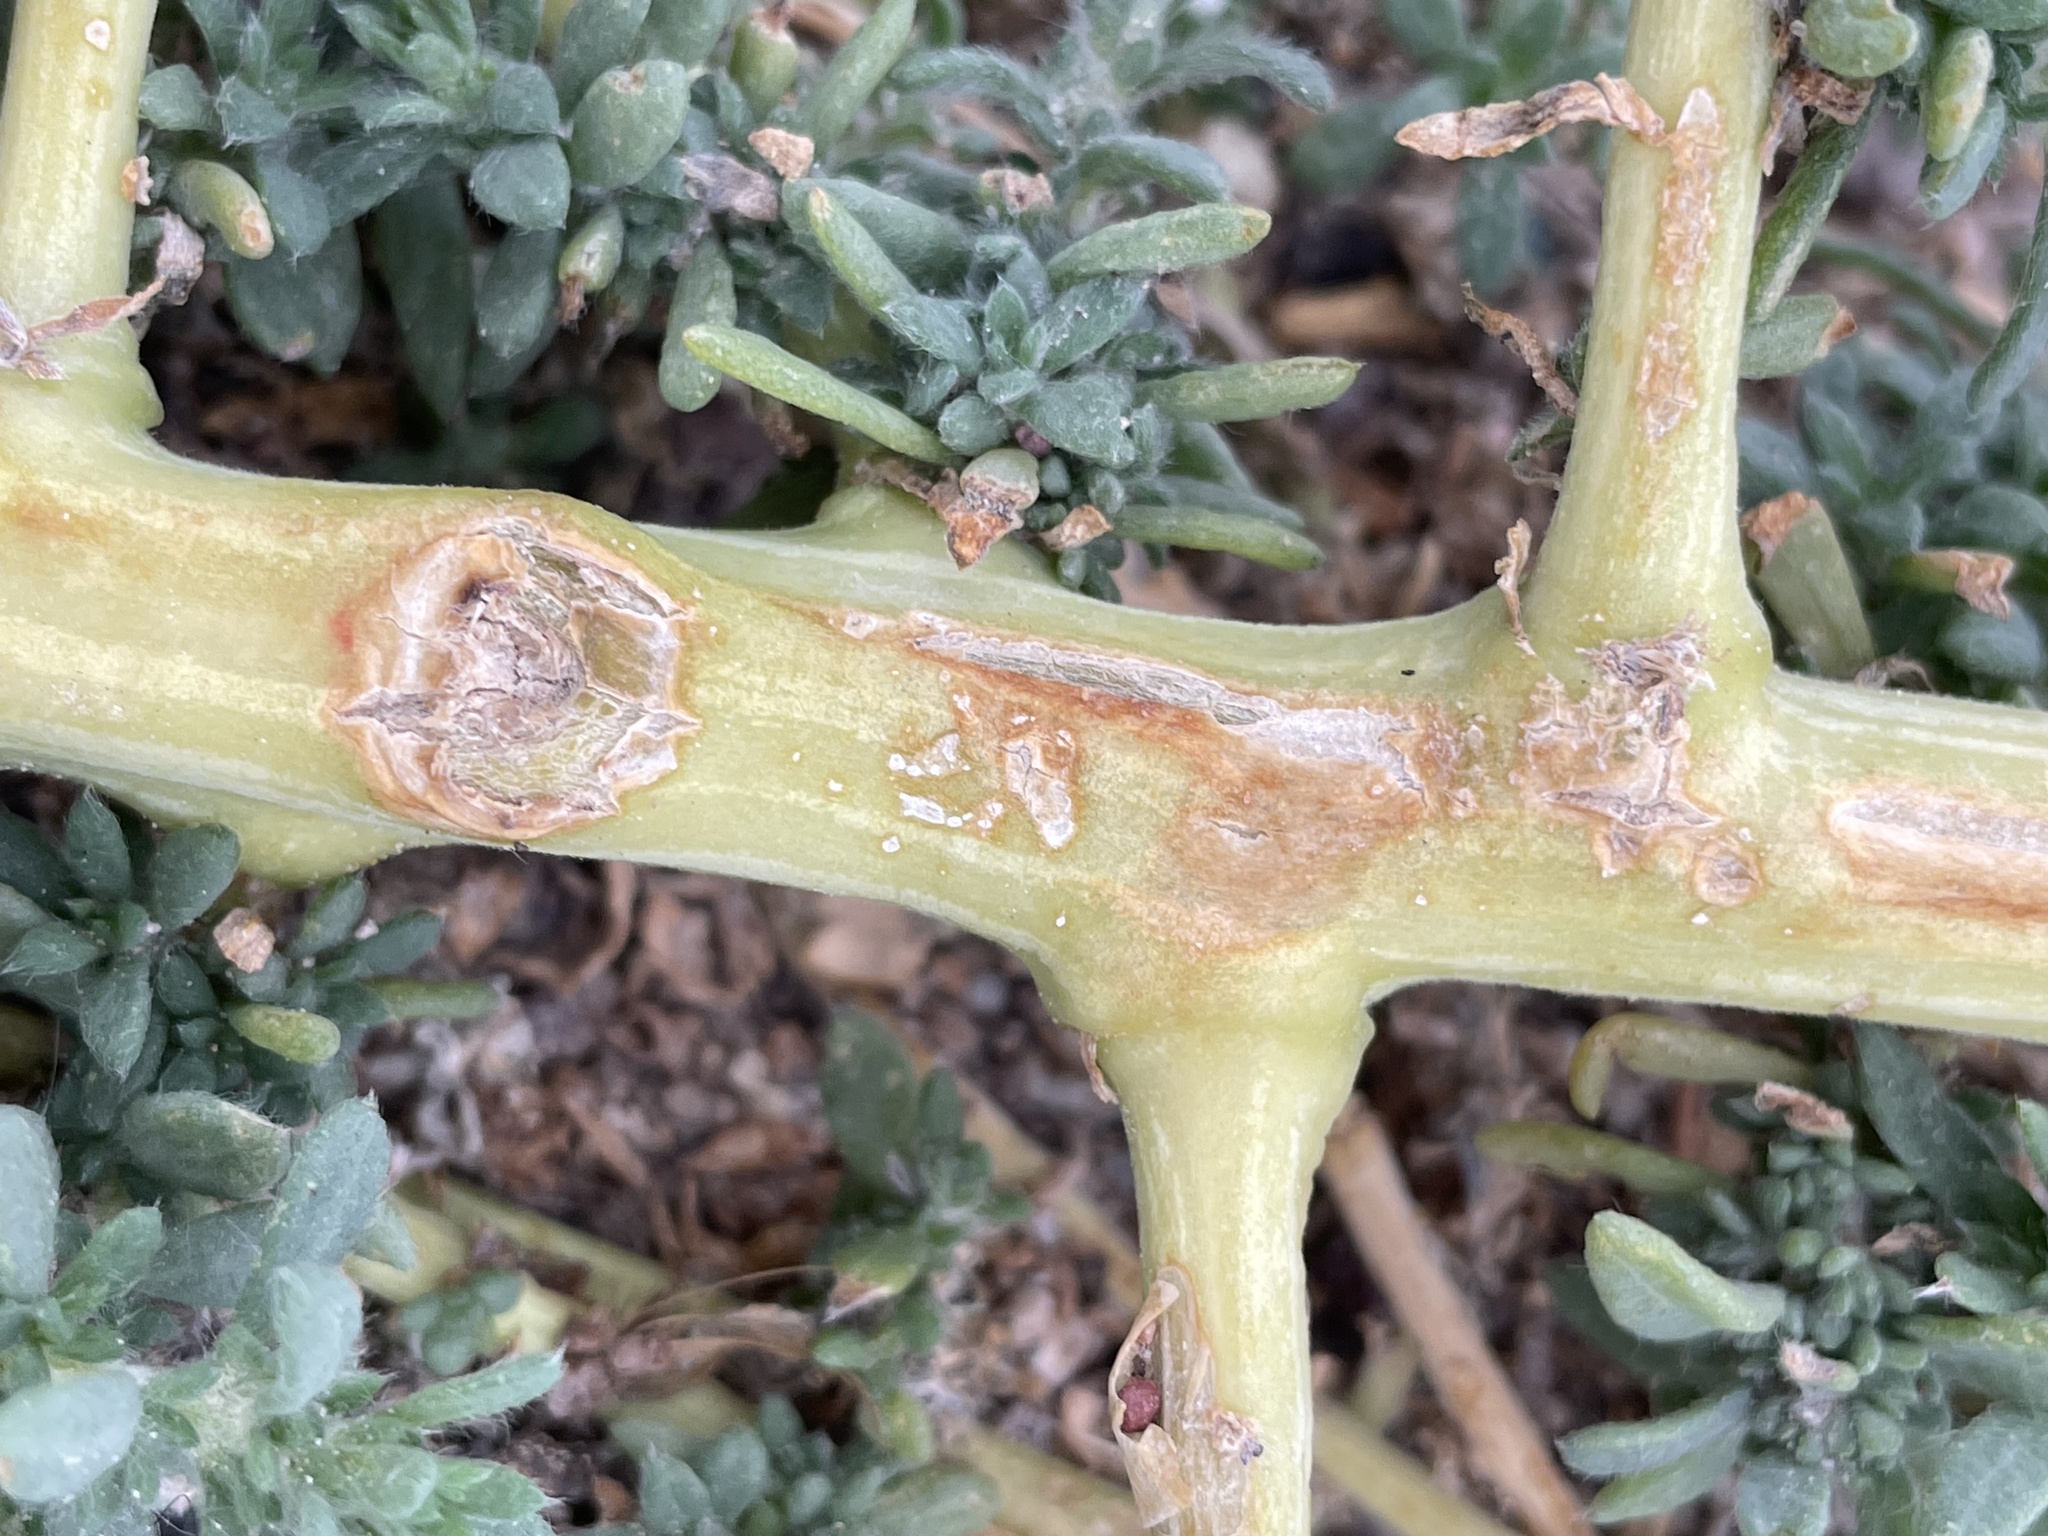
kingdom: Plantae
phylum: Tracheophyta
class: Magnoliopsida
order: Caryophyllales
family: Amaranthaceae
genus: Bassia
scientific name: Bassia hyssopifolia
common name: Fivehorn smotherweed
